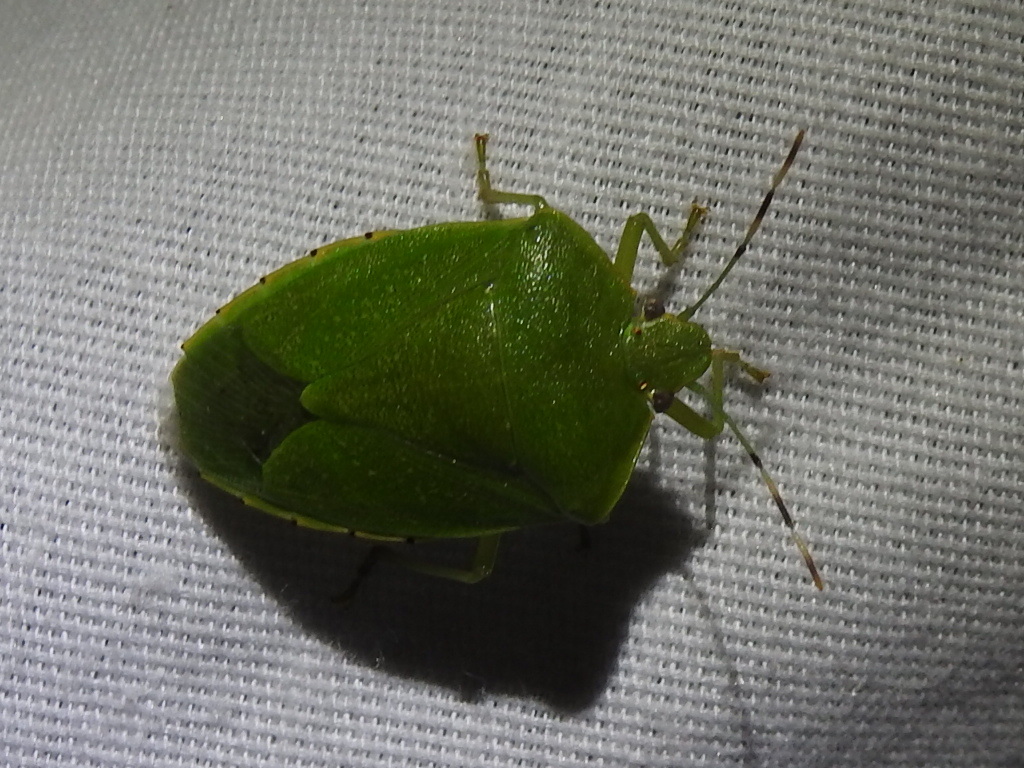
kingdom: Animalia
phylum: Arthropoda
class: Insecta
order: Hemiptera
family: Pentatomidae
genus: Chinavia
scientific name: Chinavia hilaris
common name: Green stink bug
